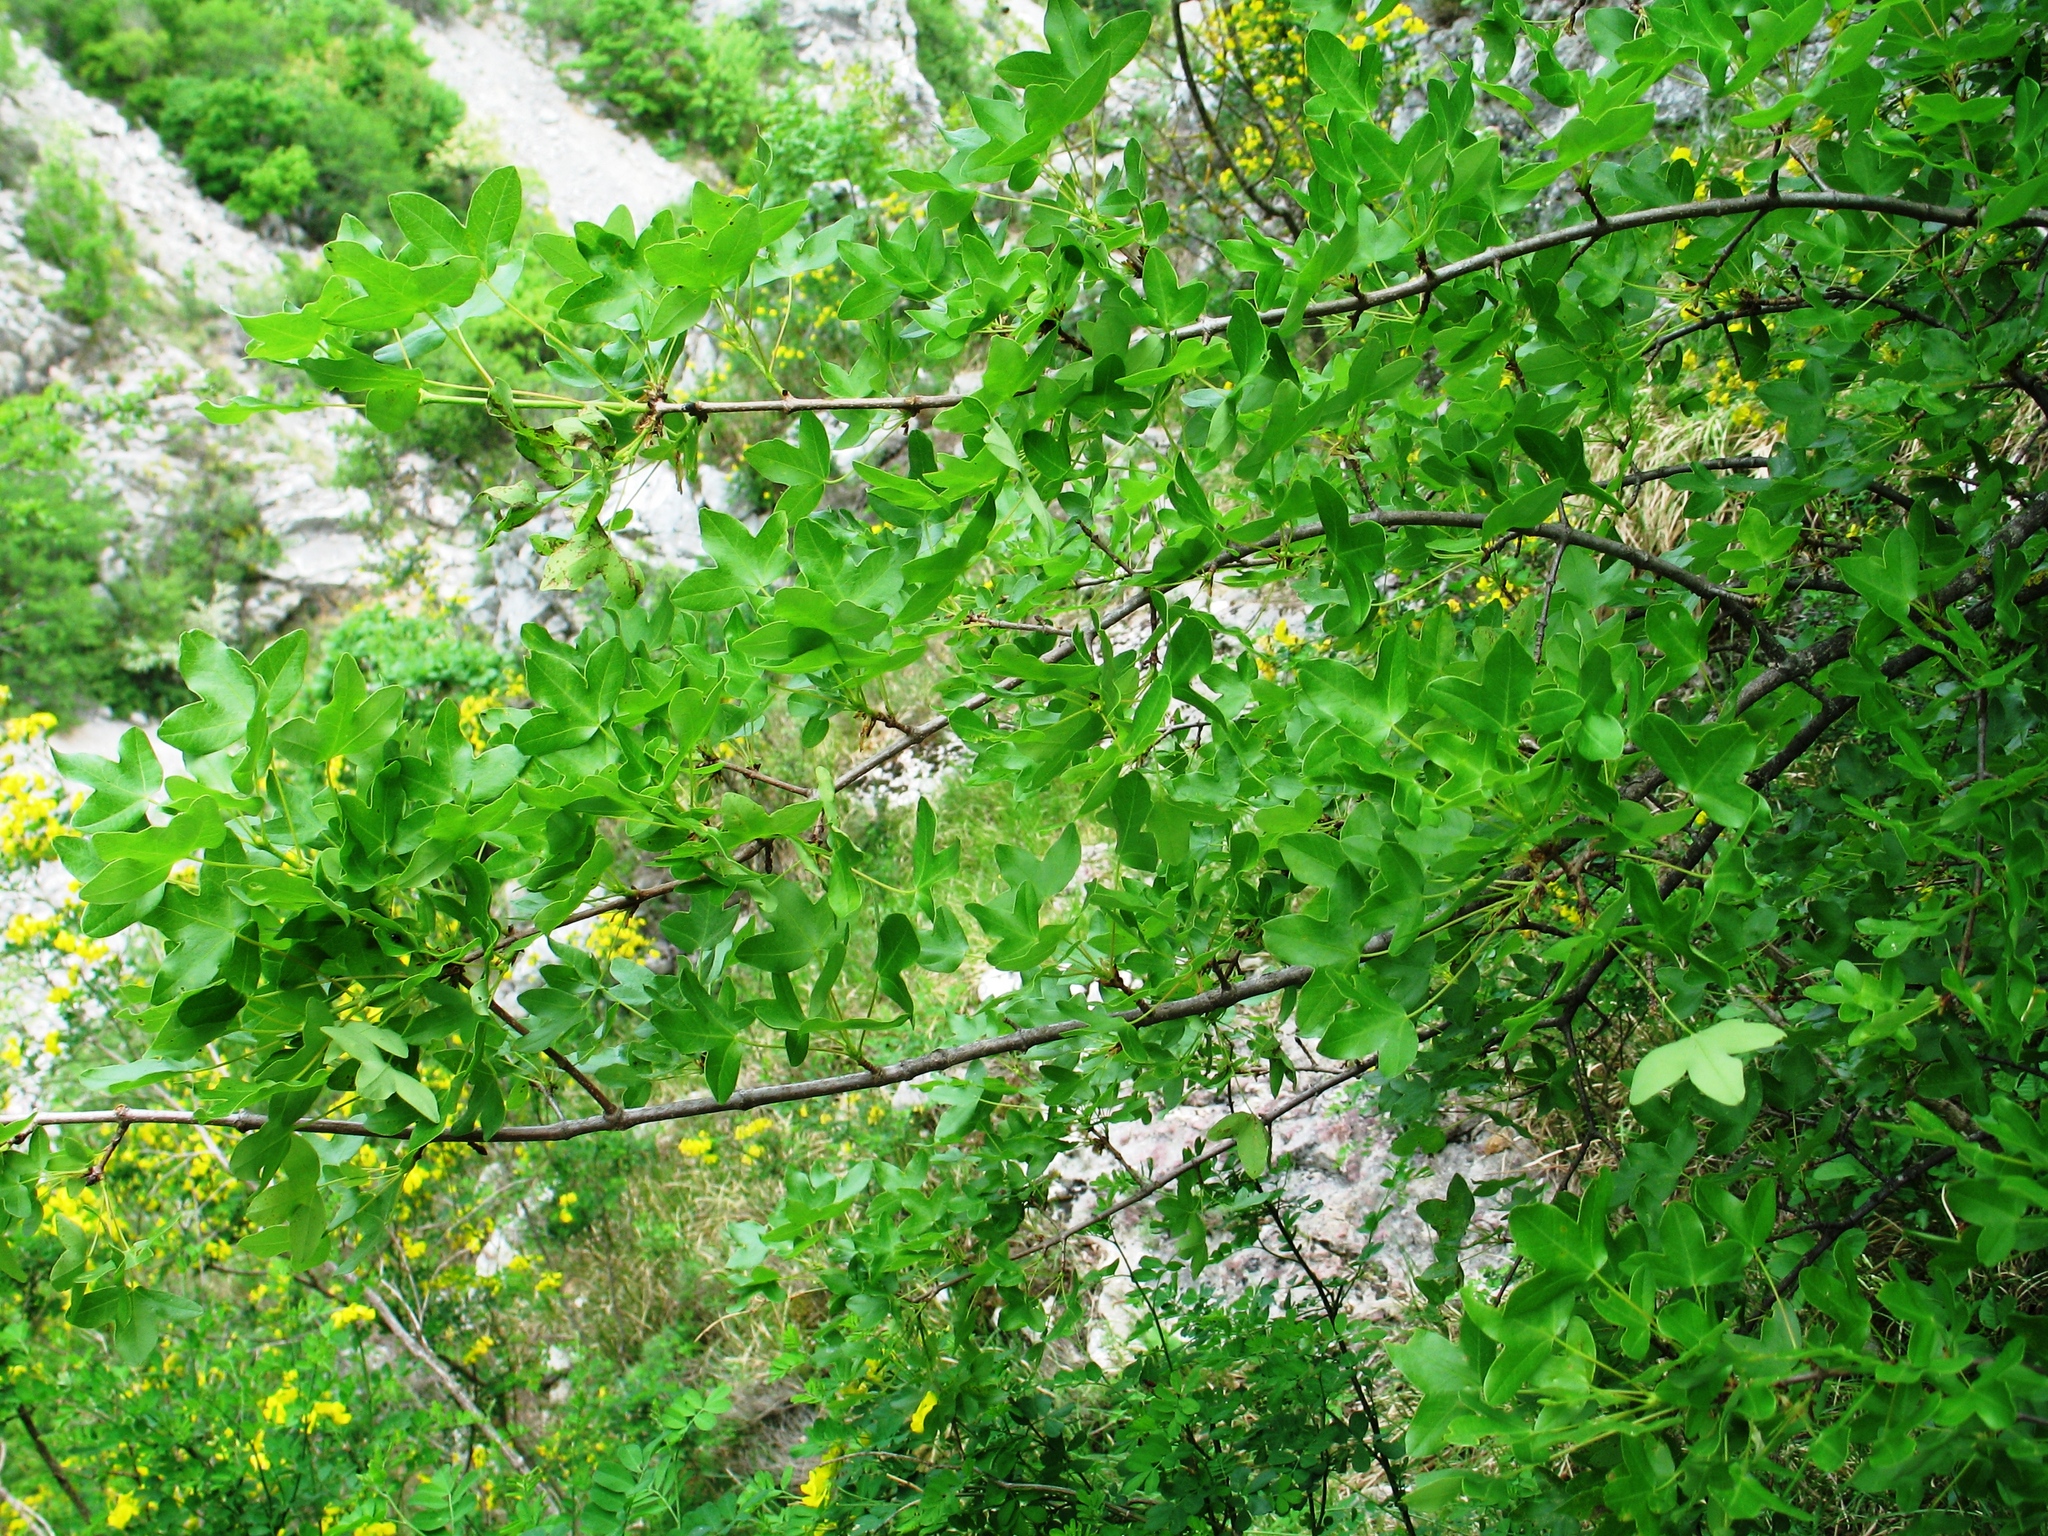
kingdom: Plantae
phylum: Tracheophyta
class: Magnoliopsida
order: Sapindales
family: Sapindaceae
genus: Acer
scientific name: Acer monspessulanum
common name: Montpellier maple
